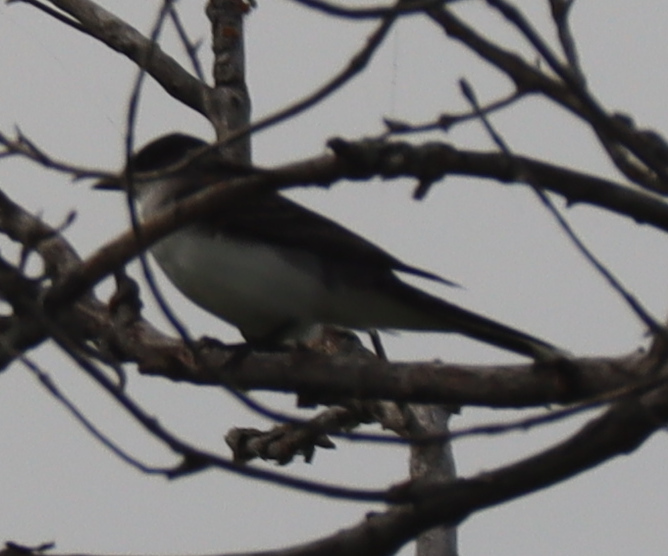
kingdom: Animalia
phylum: Chordata
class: Aves
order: Passeriformes
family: Tyrannidae
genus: Tyrannus
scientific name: Tyrannus tyrannus
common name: Eastern kingbird
